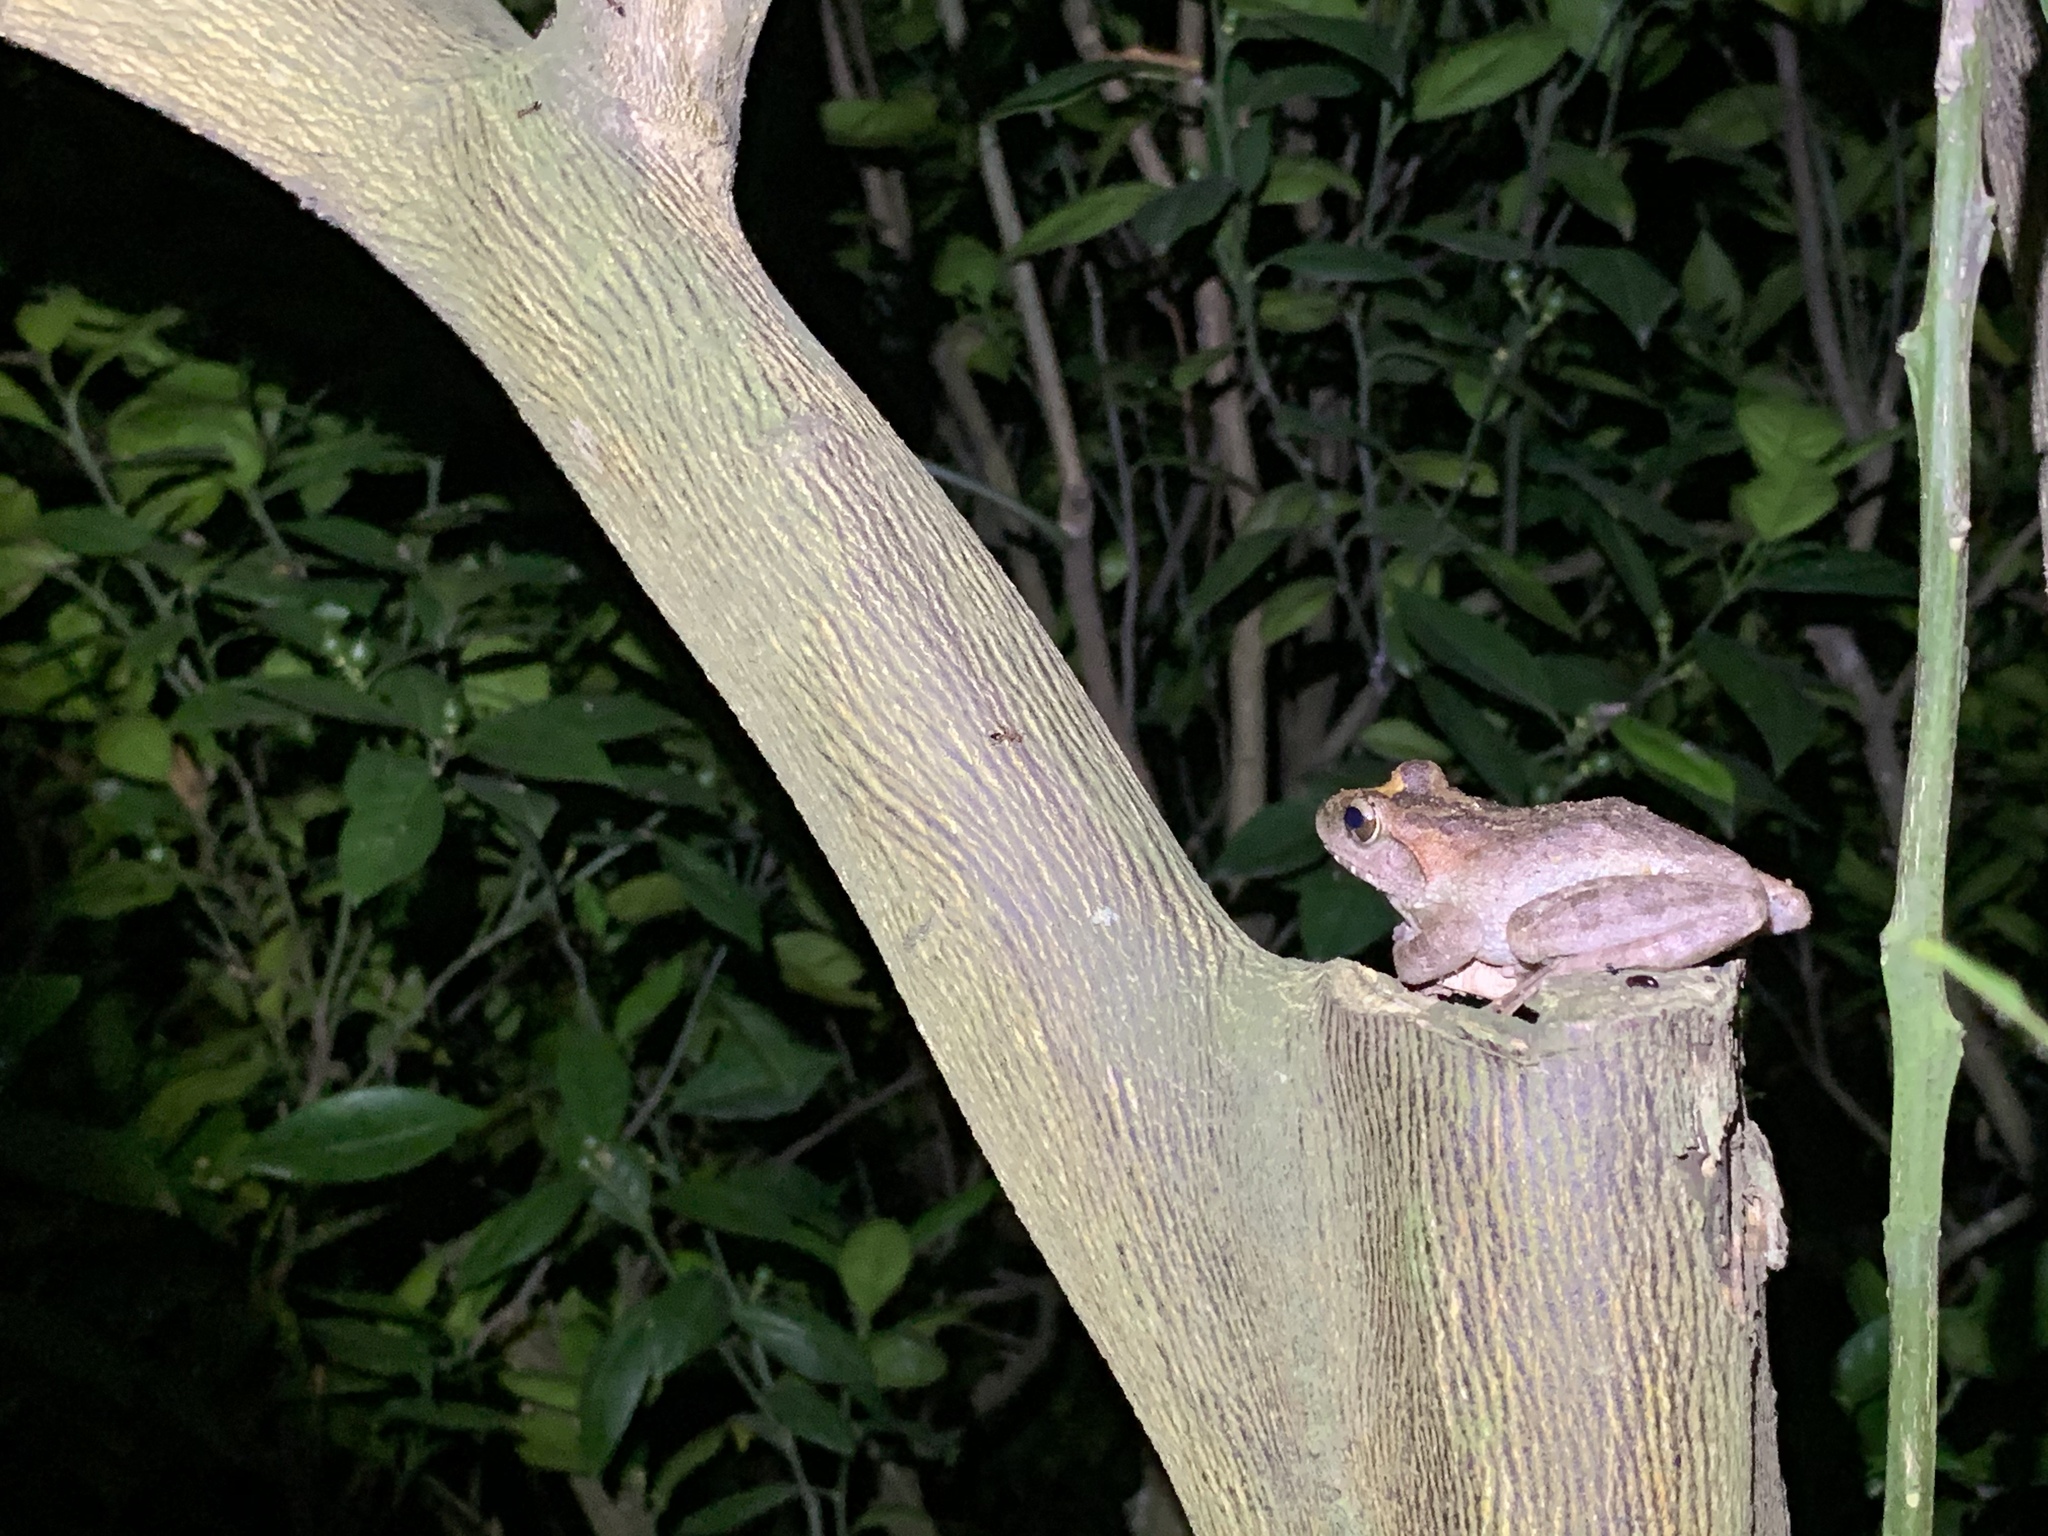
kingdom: Animalia
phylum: Chordata
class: Amphibia
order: Anura
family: Rhacophoridae
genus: Buergeria
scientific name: Buergeria robusta
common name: Brown treefrog
